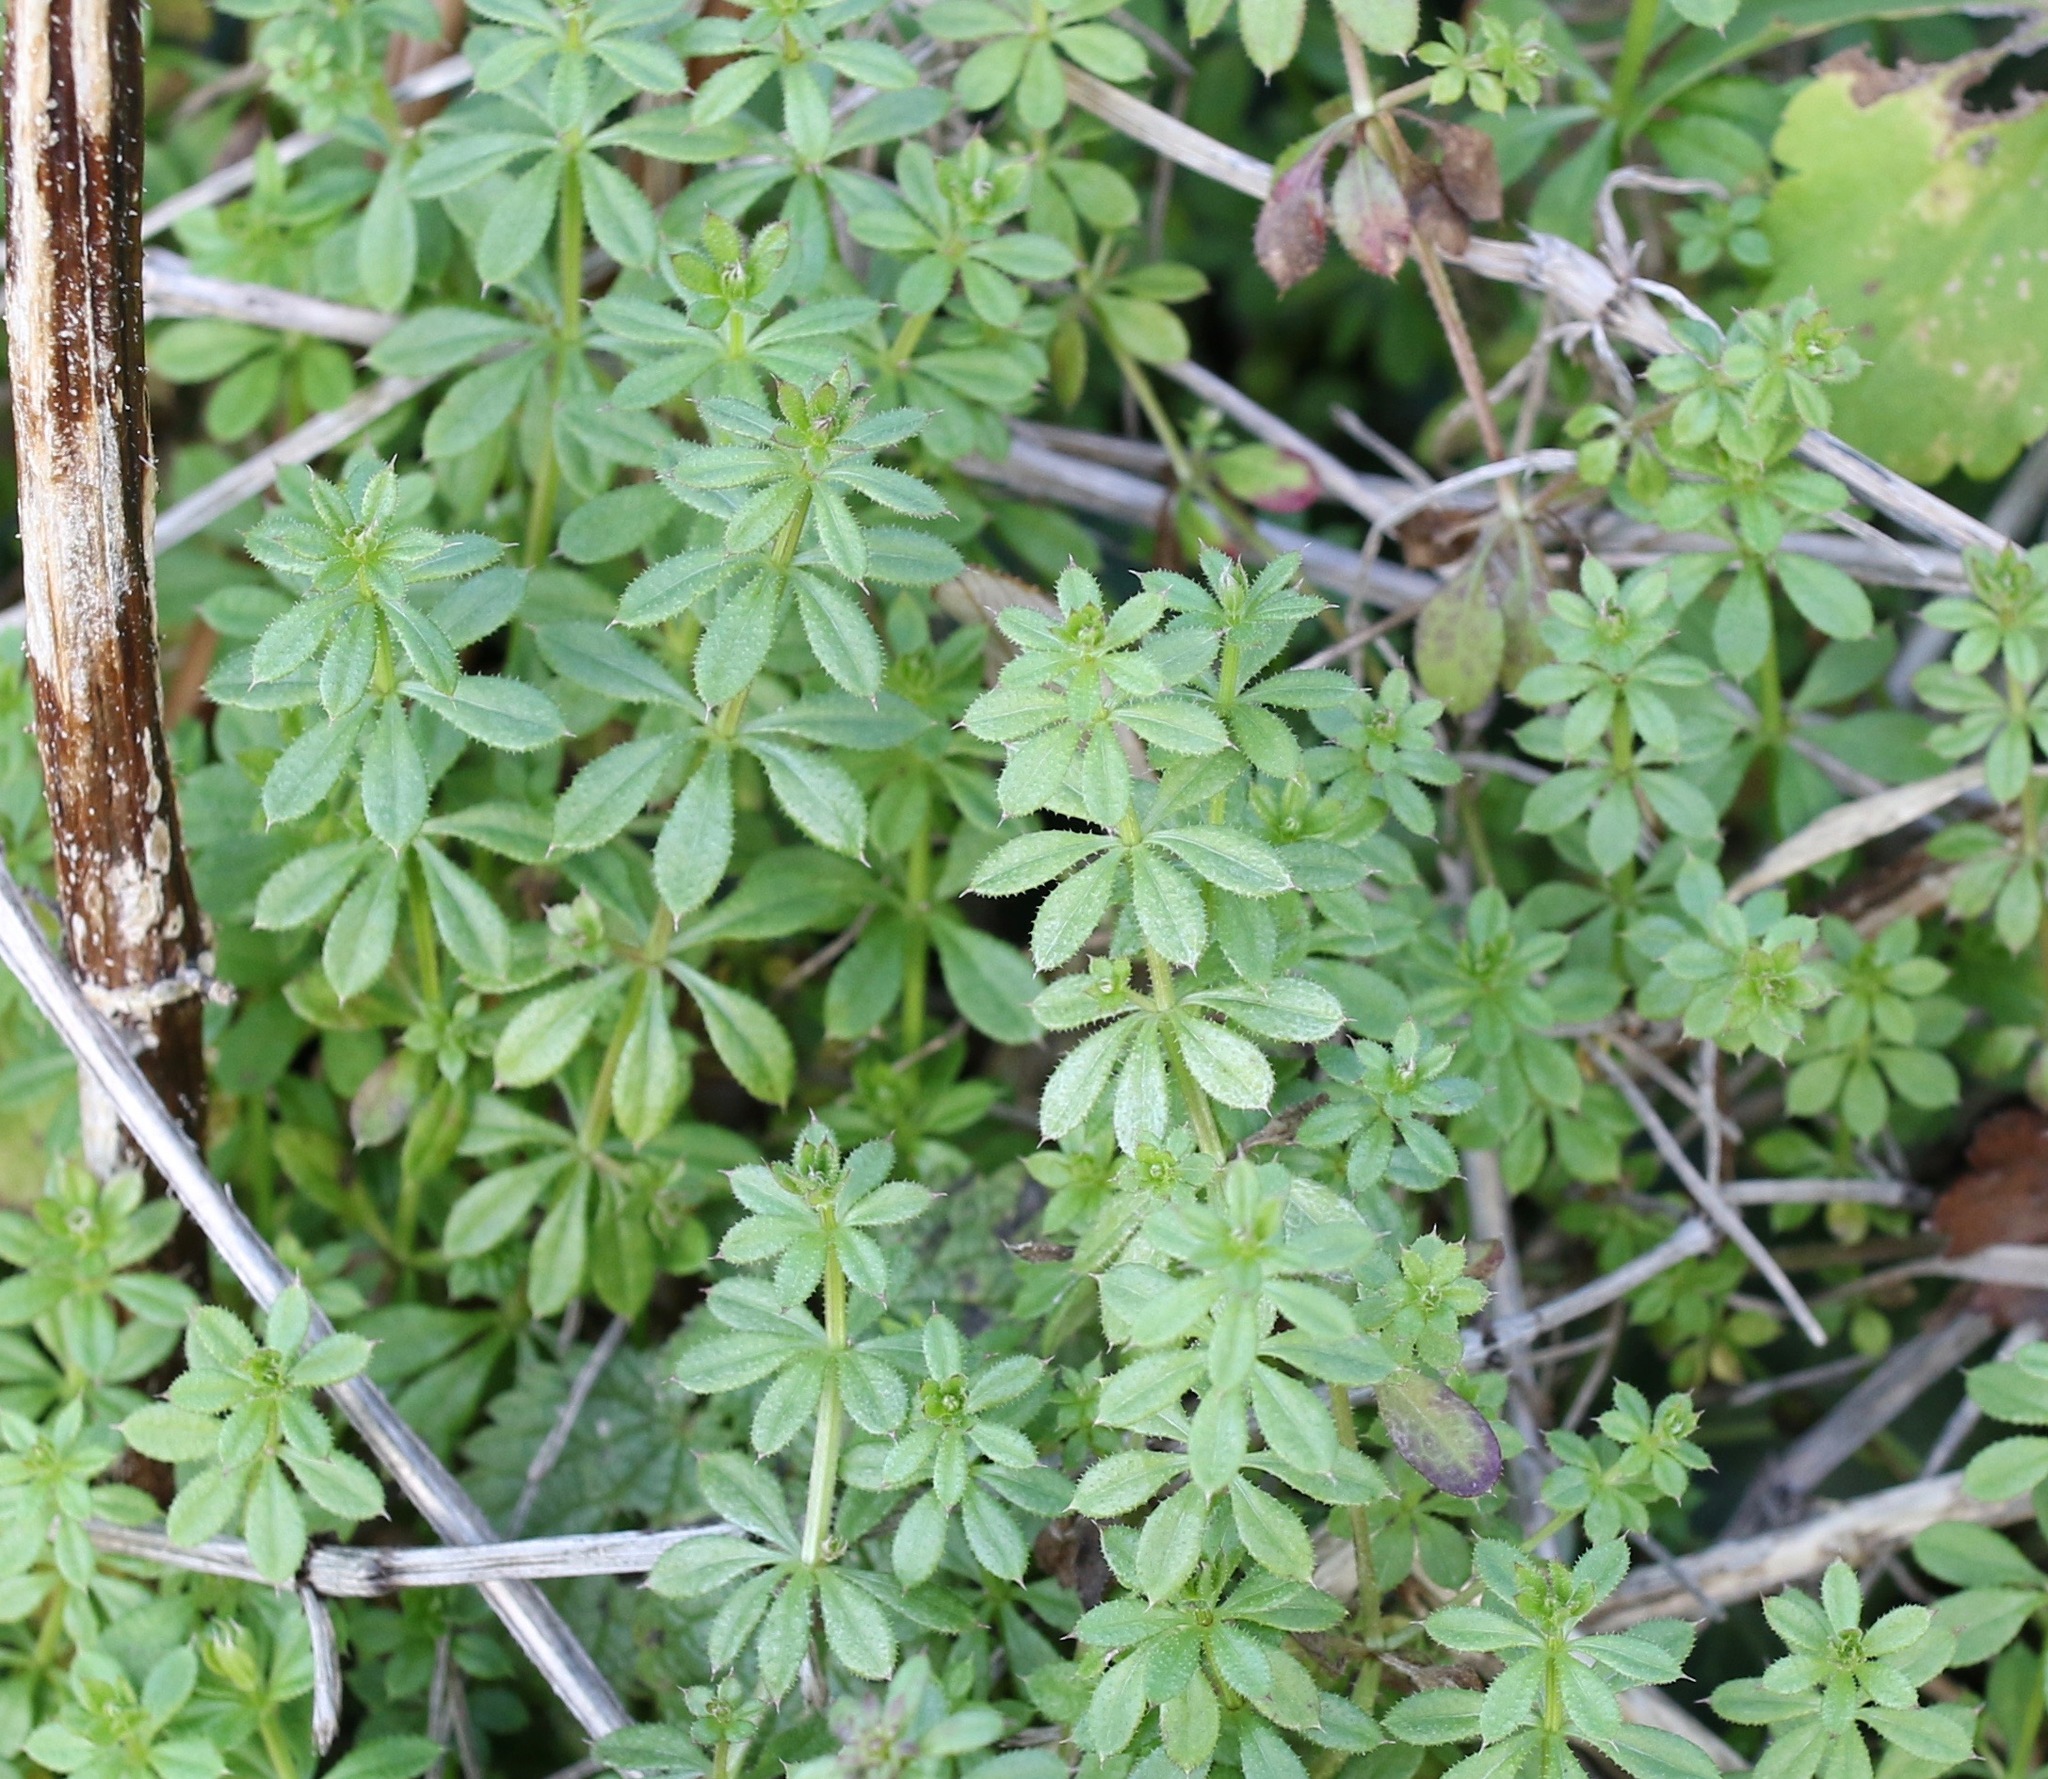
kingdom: Plantae
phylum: Tracheophyta
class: Magnoliopsida
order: Gentianales
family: Rubiaceae
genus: Galium
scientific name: Galium aparine
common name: Cleavers
